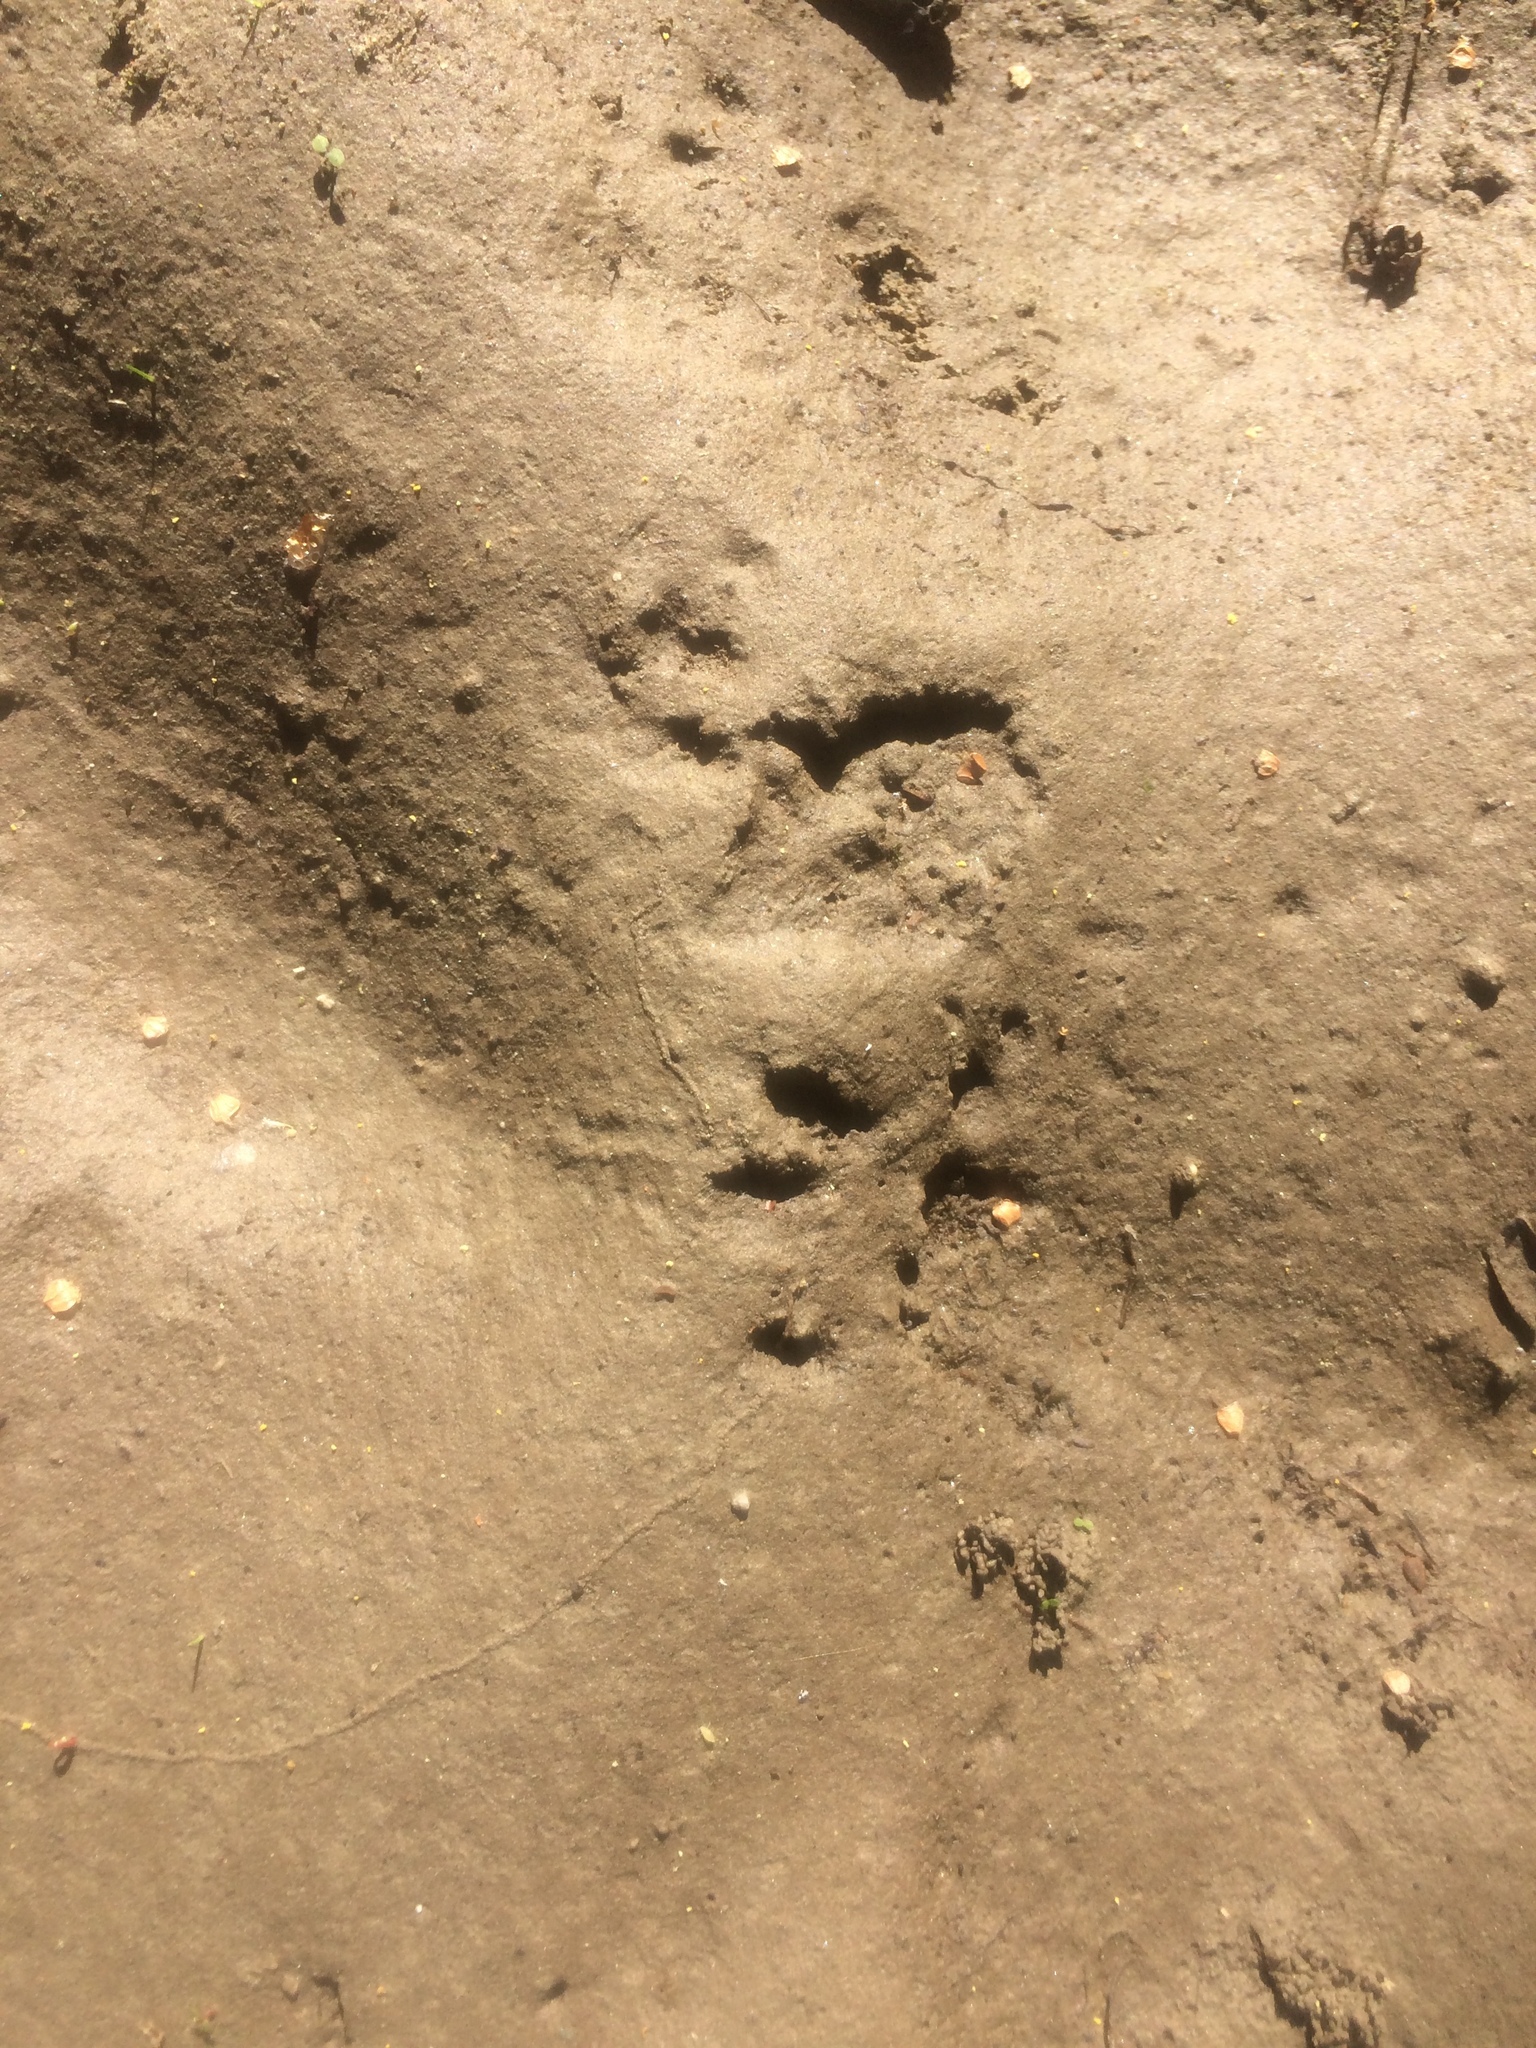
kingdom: Animalia
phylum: Chordata
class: Mammalia
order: Rodentia
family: Sciuridae
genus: Sciurus
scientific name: Sciurus
